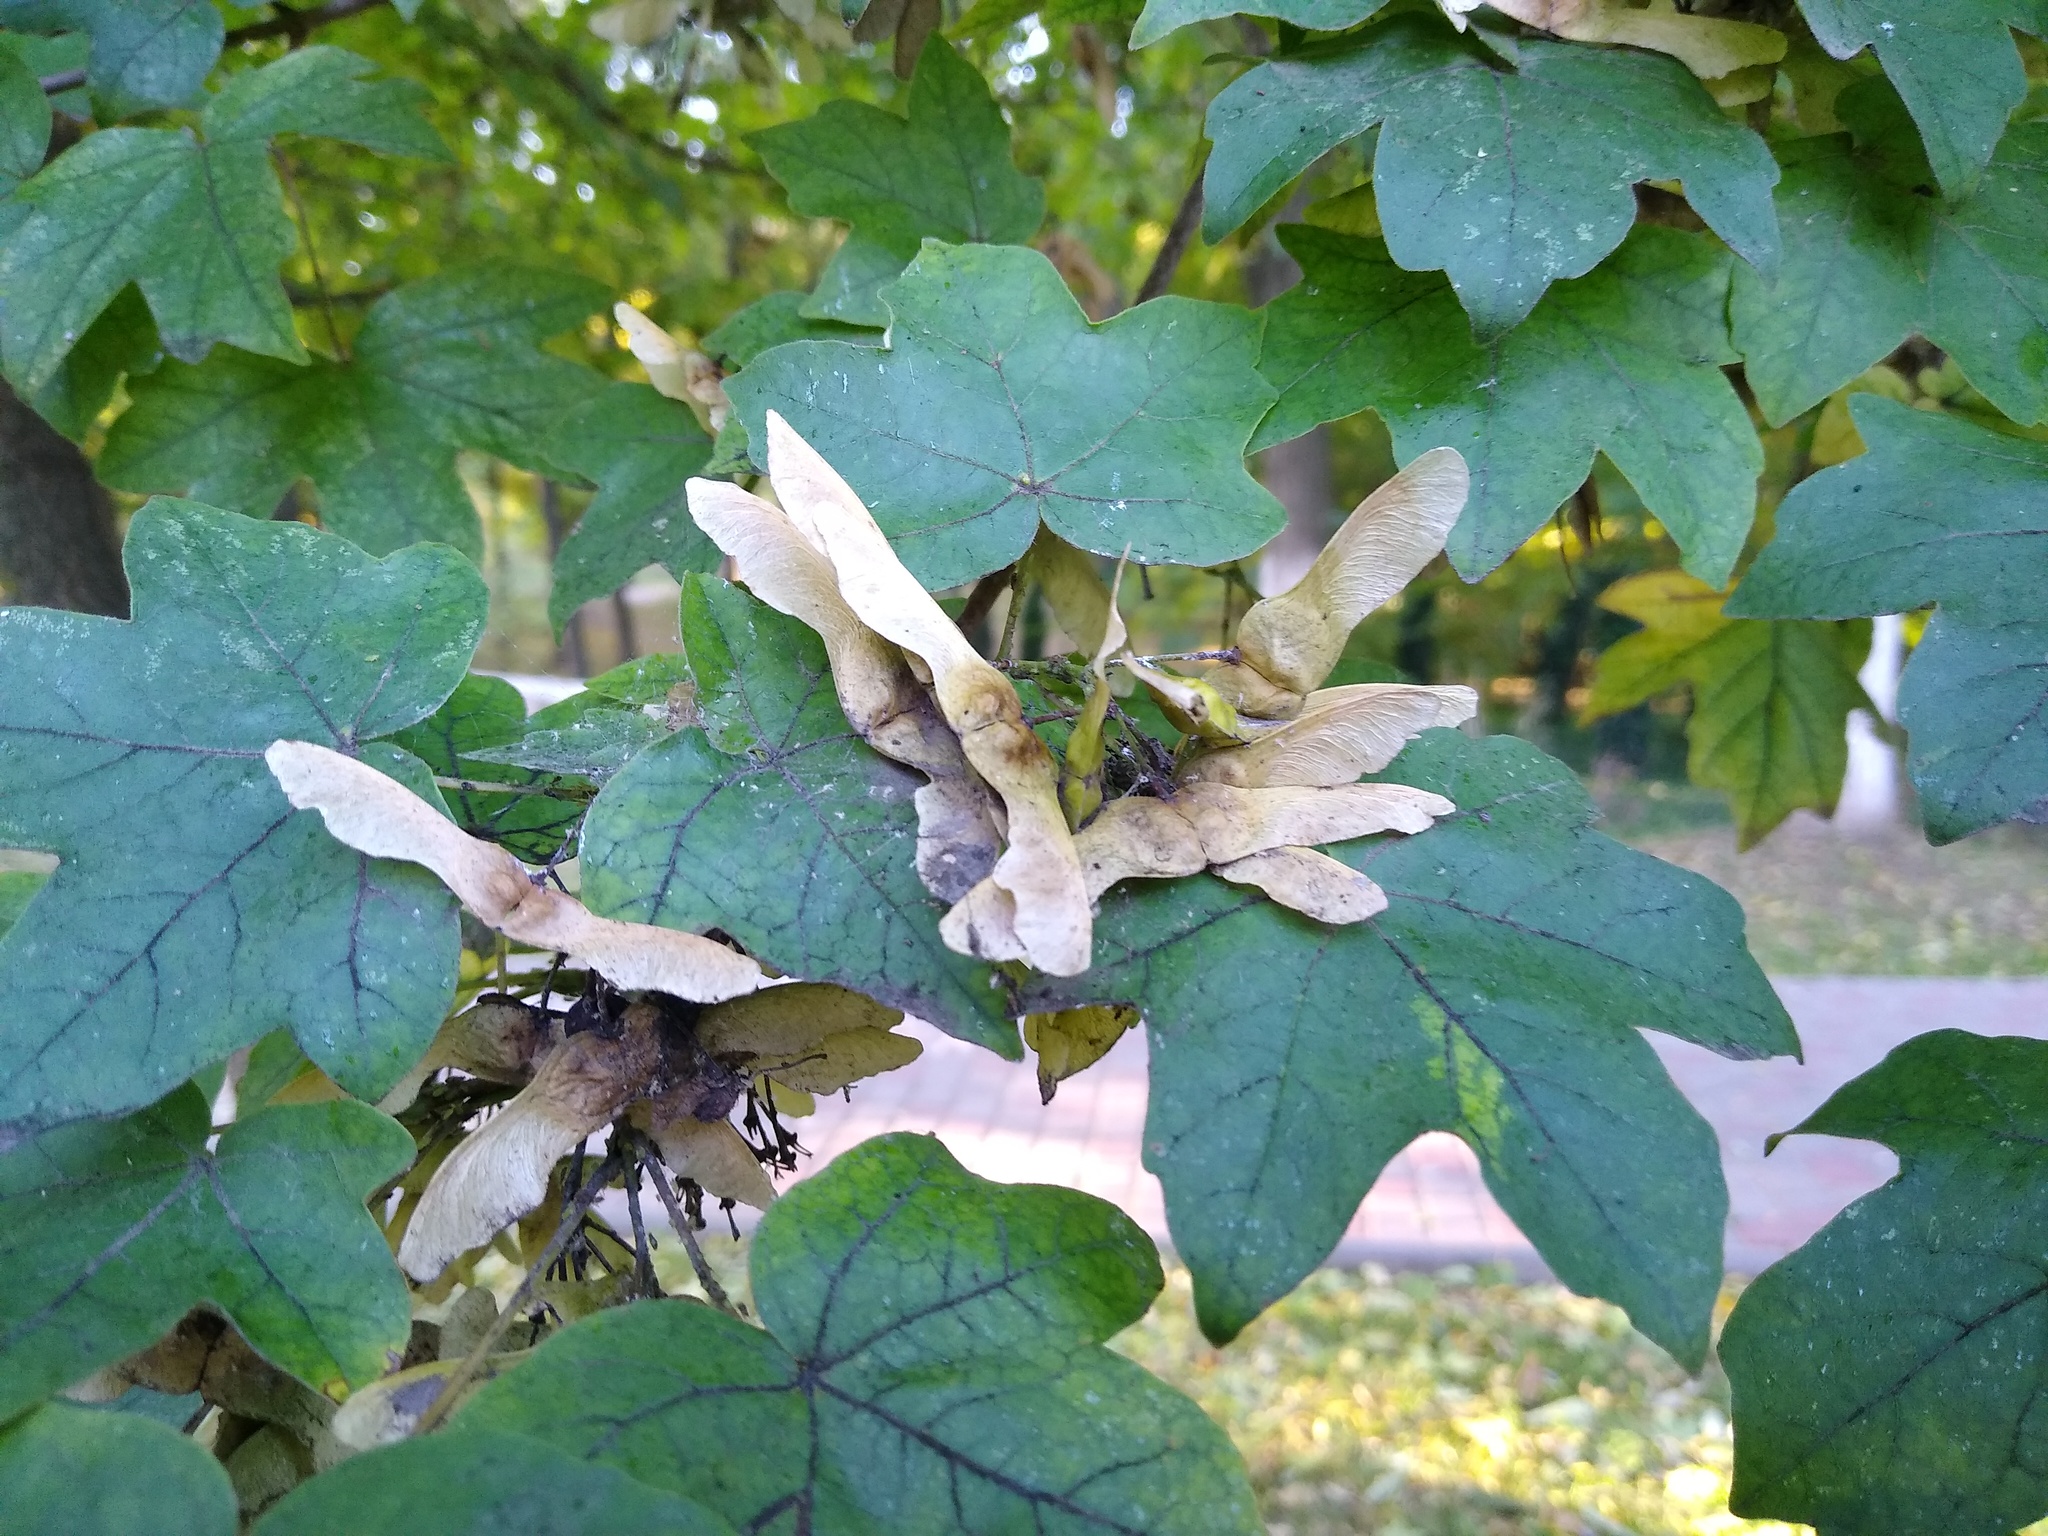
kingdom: Plantae
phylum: Tracheophyta
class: Magnoliopsida
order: Sapindales
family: Sapindaceae
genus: Acer
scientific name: Acer campestre
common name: Field maple
